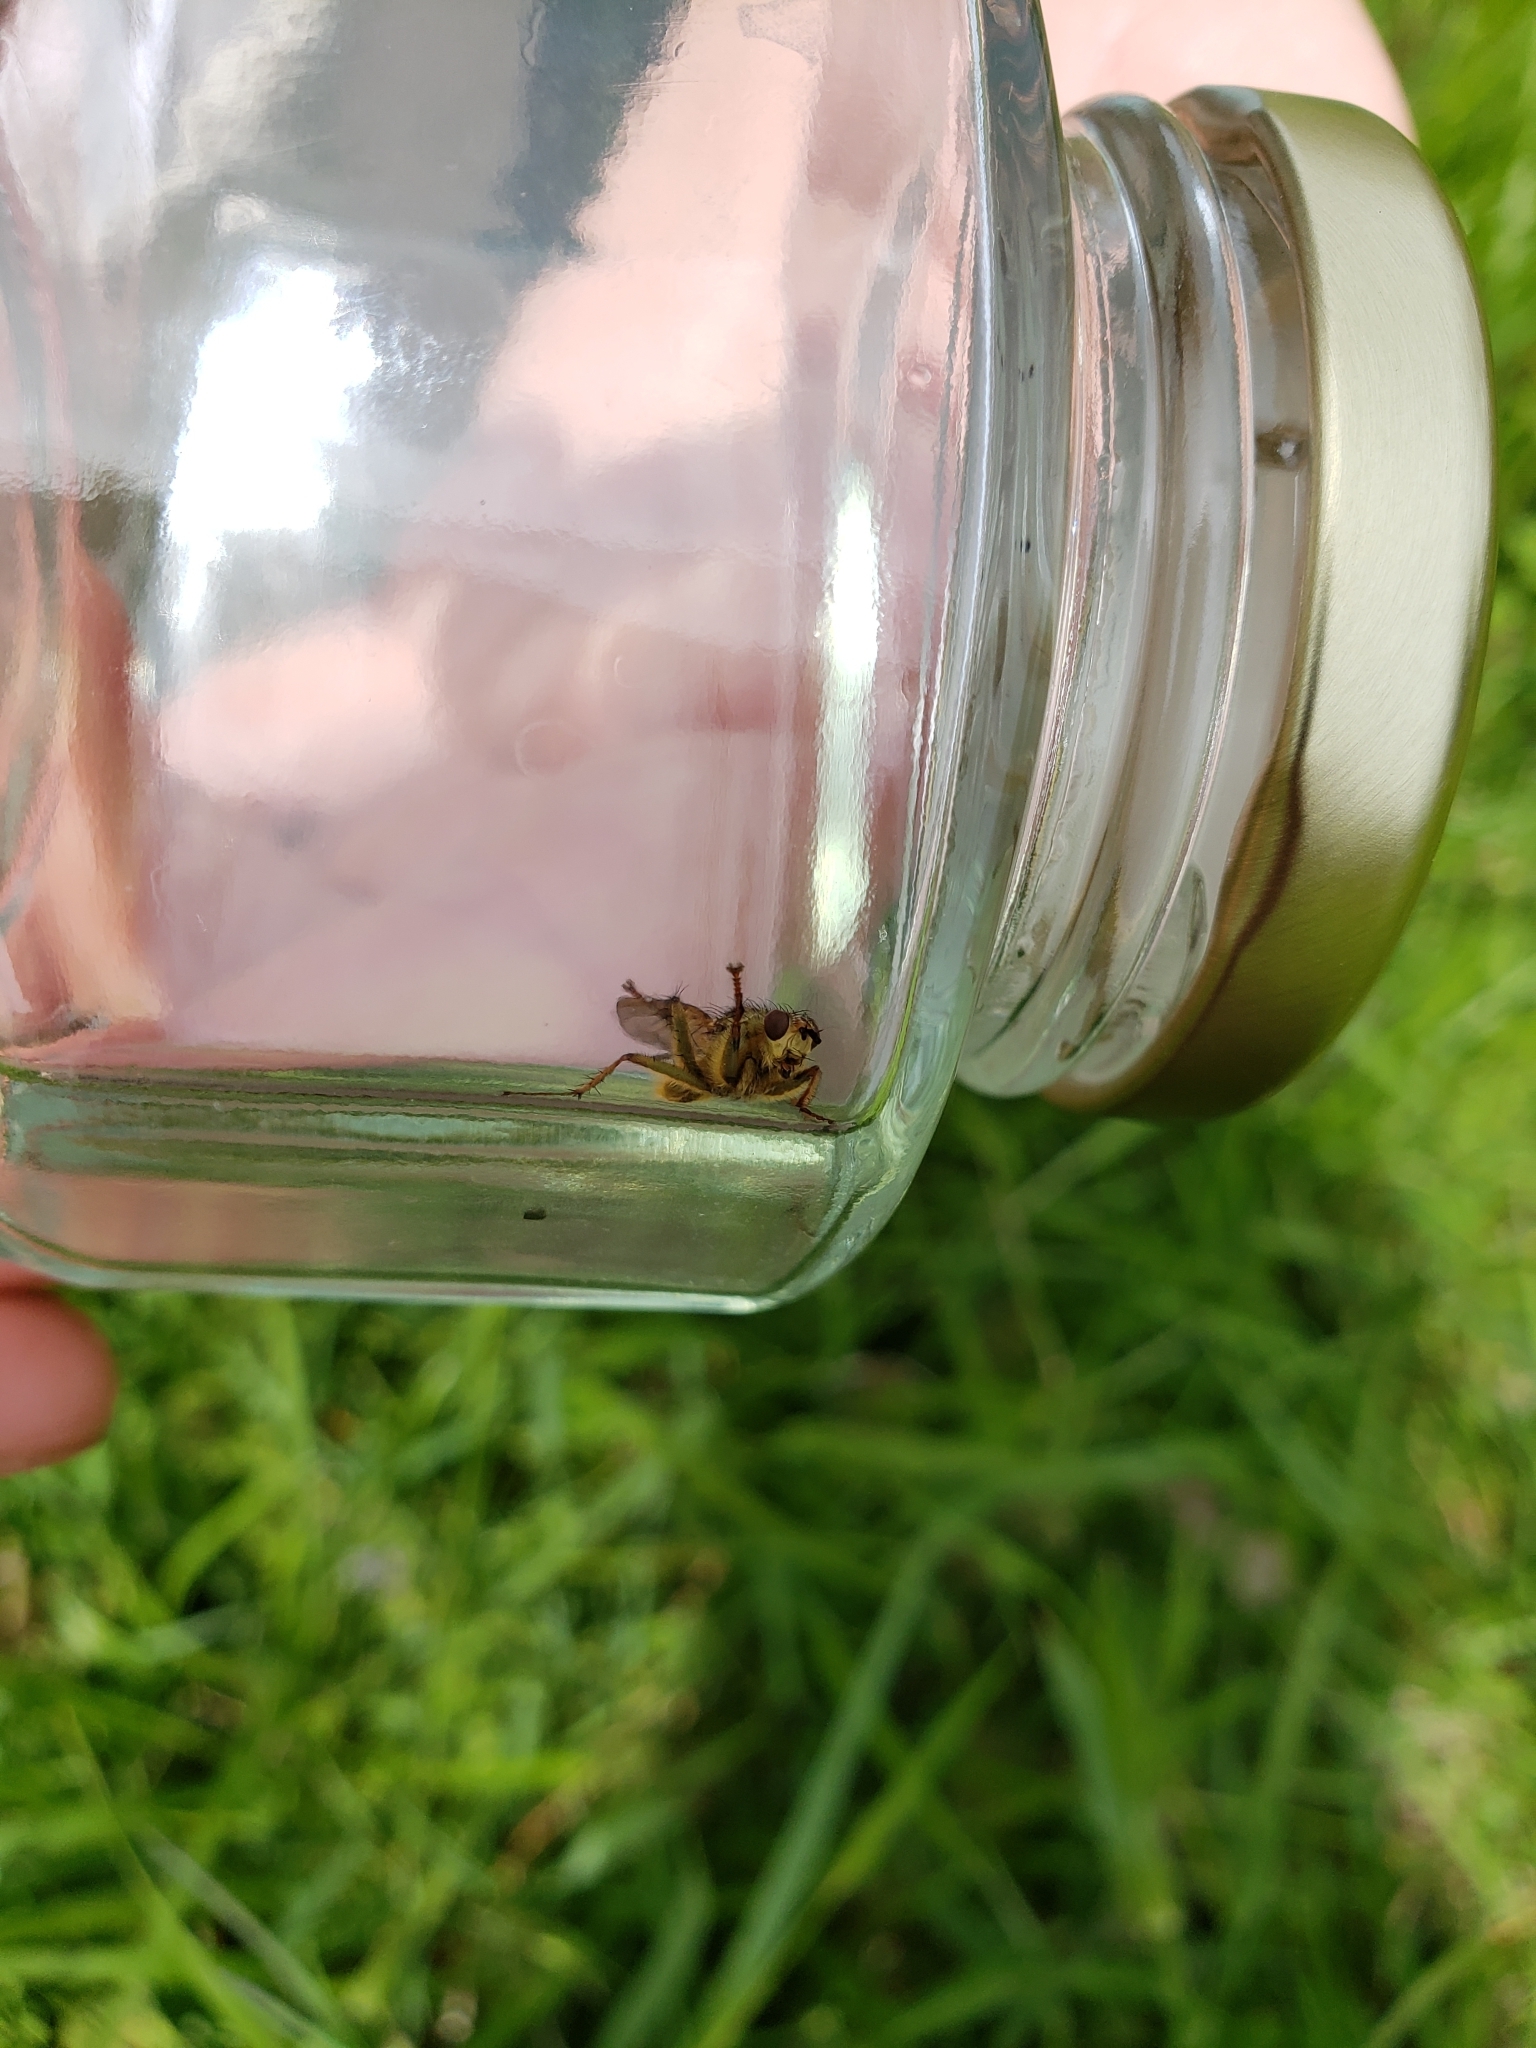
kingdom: Animalia
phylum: Arthropoda
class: Insecta
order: Diptera
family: Scathophagidae
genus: Scathophaga
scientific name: Scathophaga stercoraria
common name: Yellow dung fly
